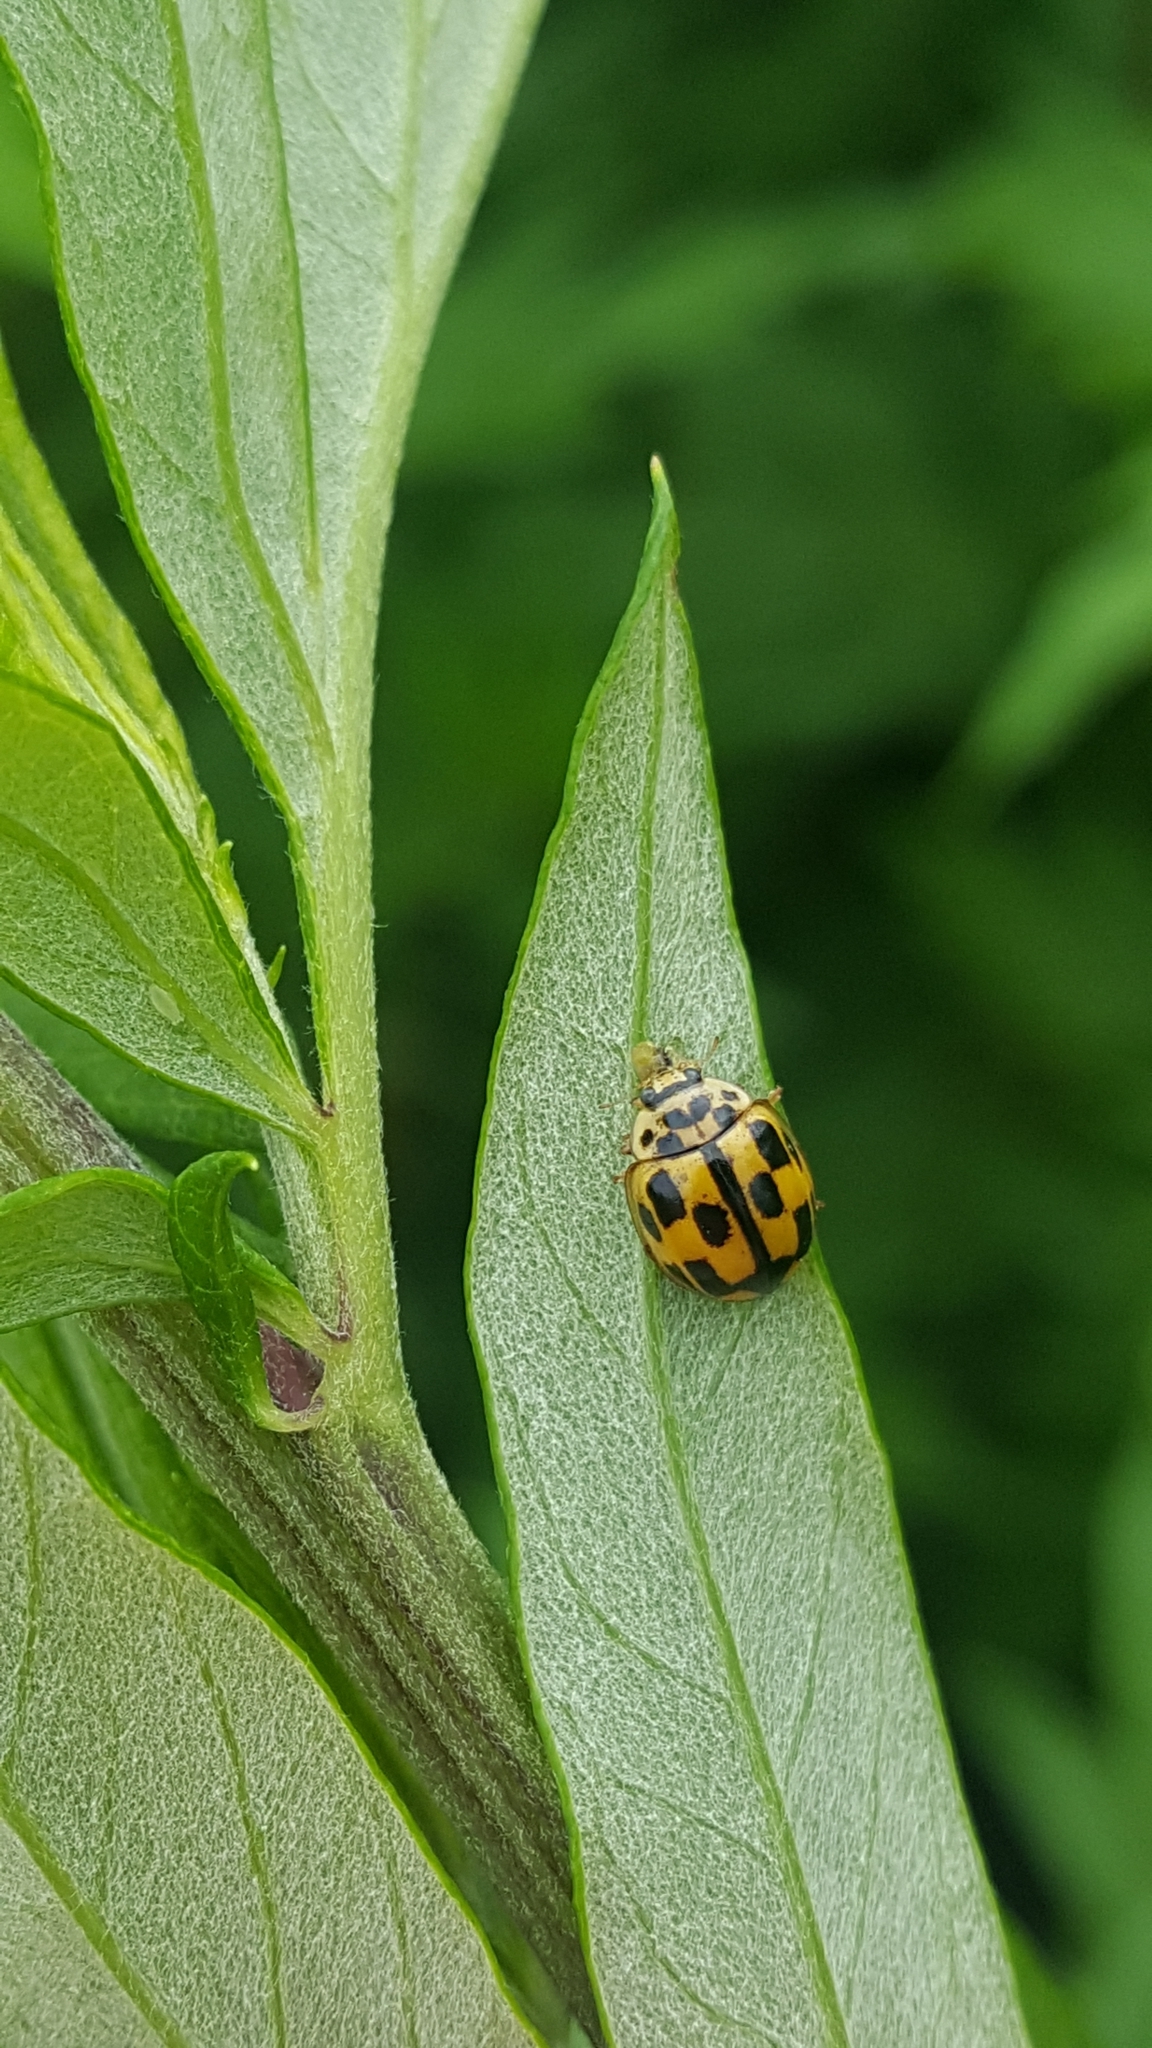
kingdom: Animalia
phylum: Arthropoda
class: Insecta
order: Coleoptera
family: Coccinellidae
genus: Propylaea
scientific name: Propylaea quatuordecimpunctata
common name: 14-spotted ladybird beetle
